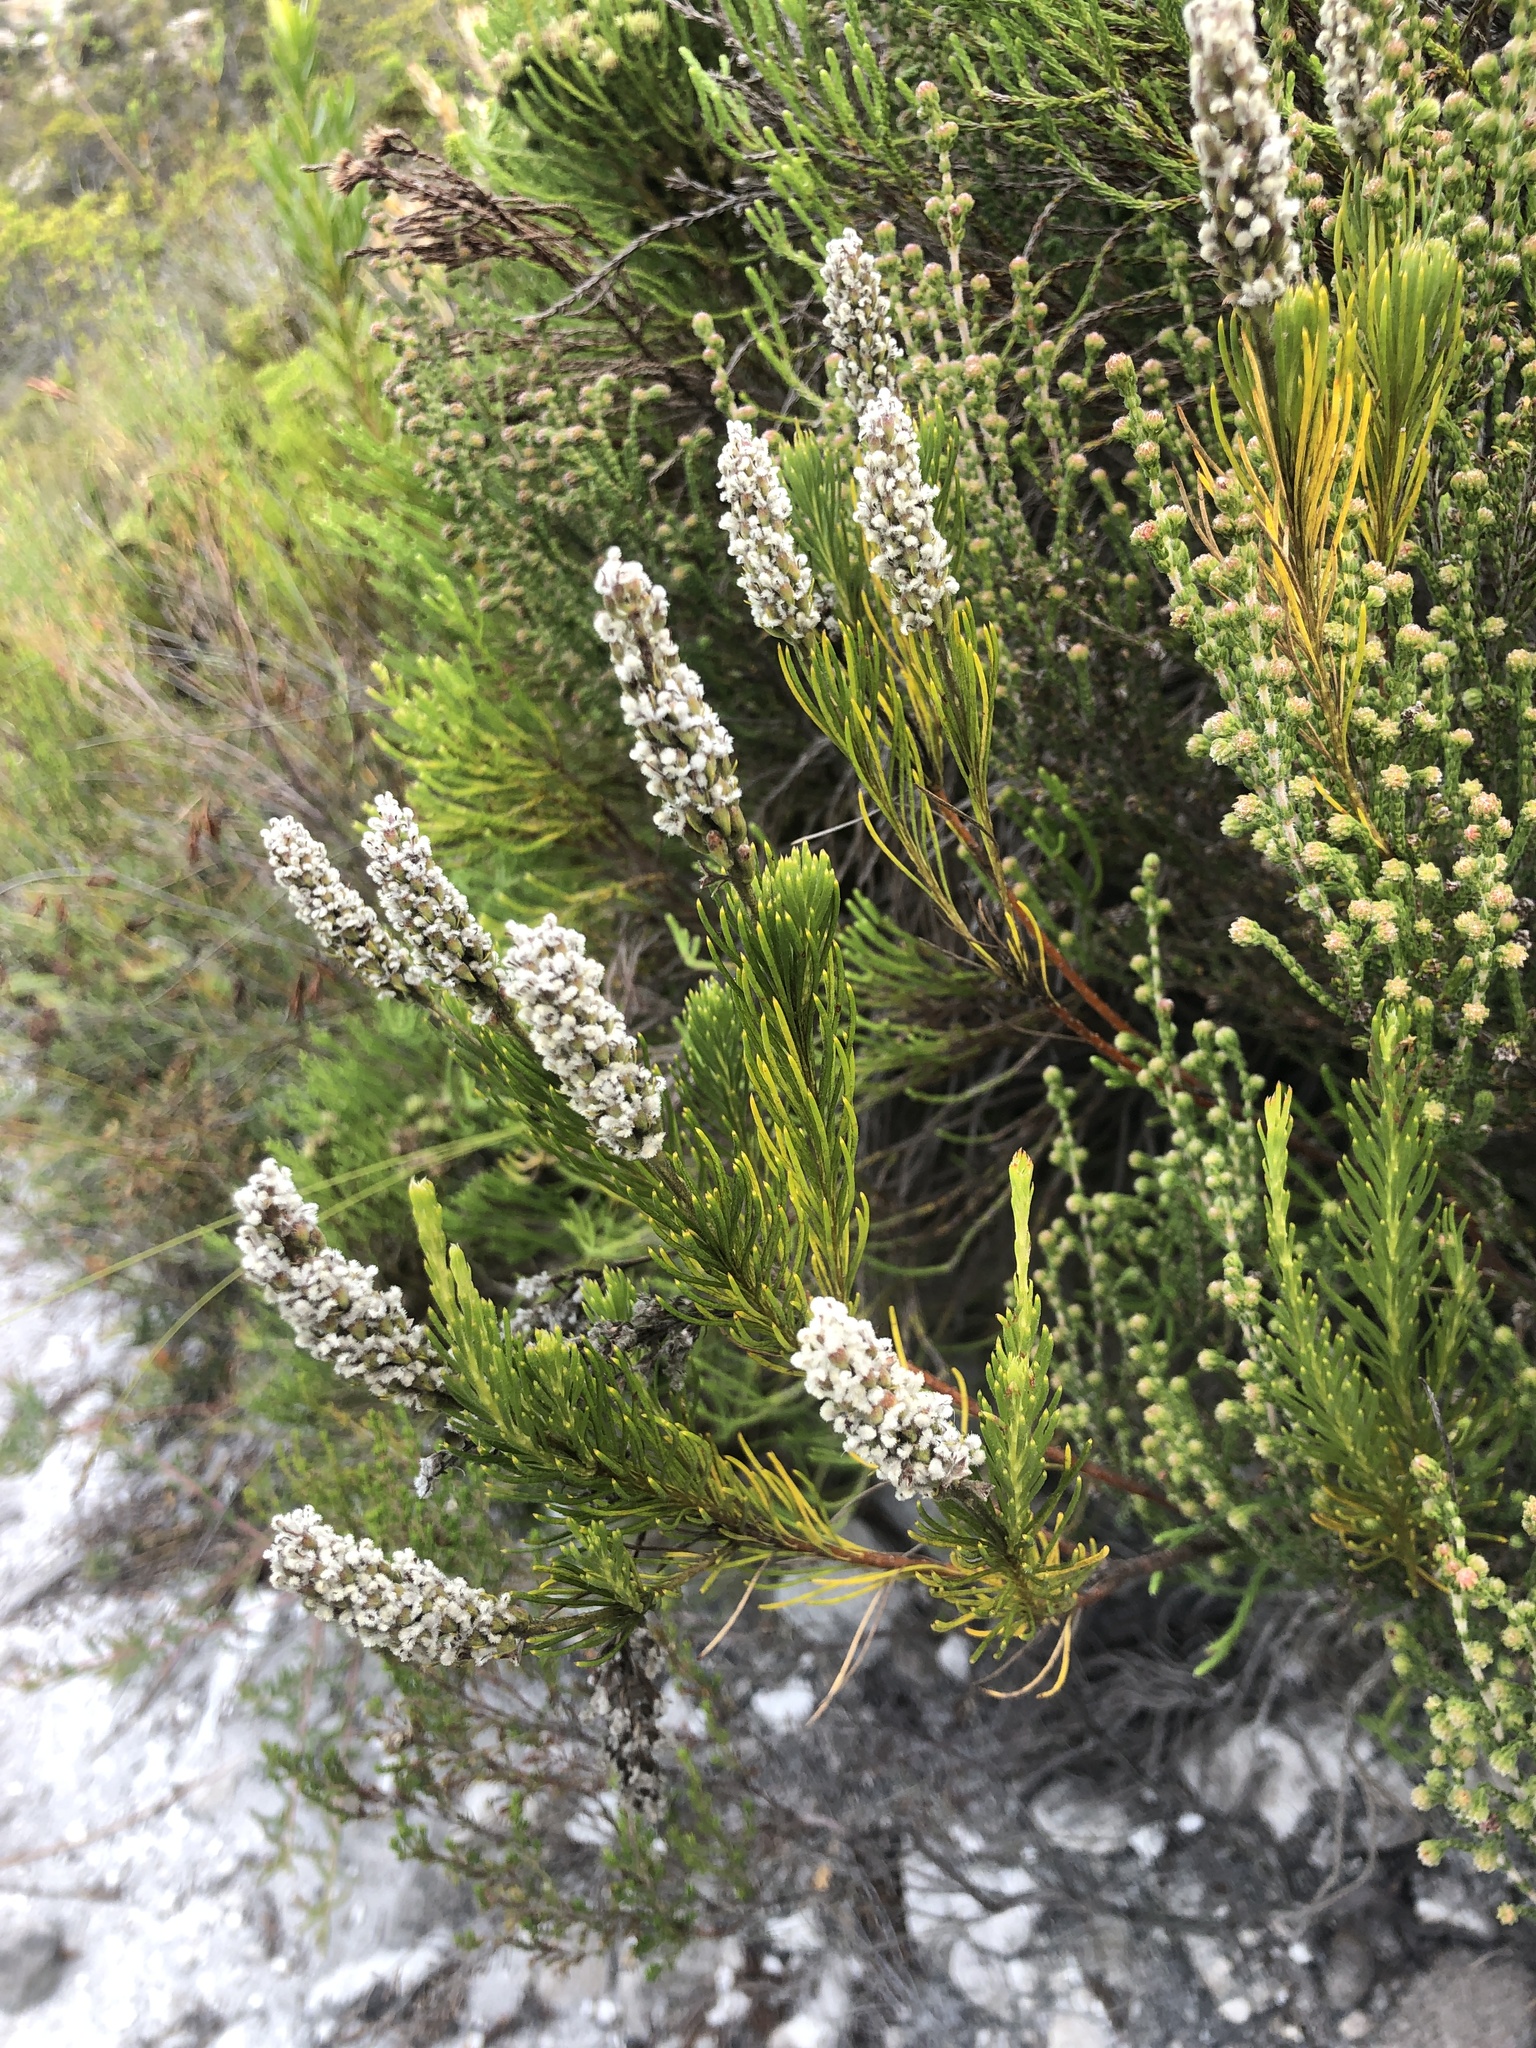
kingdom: Plantae
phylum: Tracheophyta
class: Magnoliopsida
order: Proteales
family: Proteaceae
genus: Spatalla
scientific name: Spatalla curvifolia
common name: White-stalked spoon
